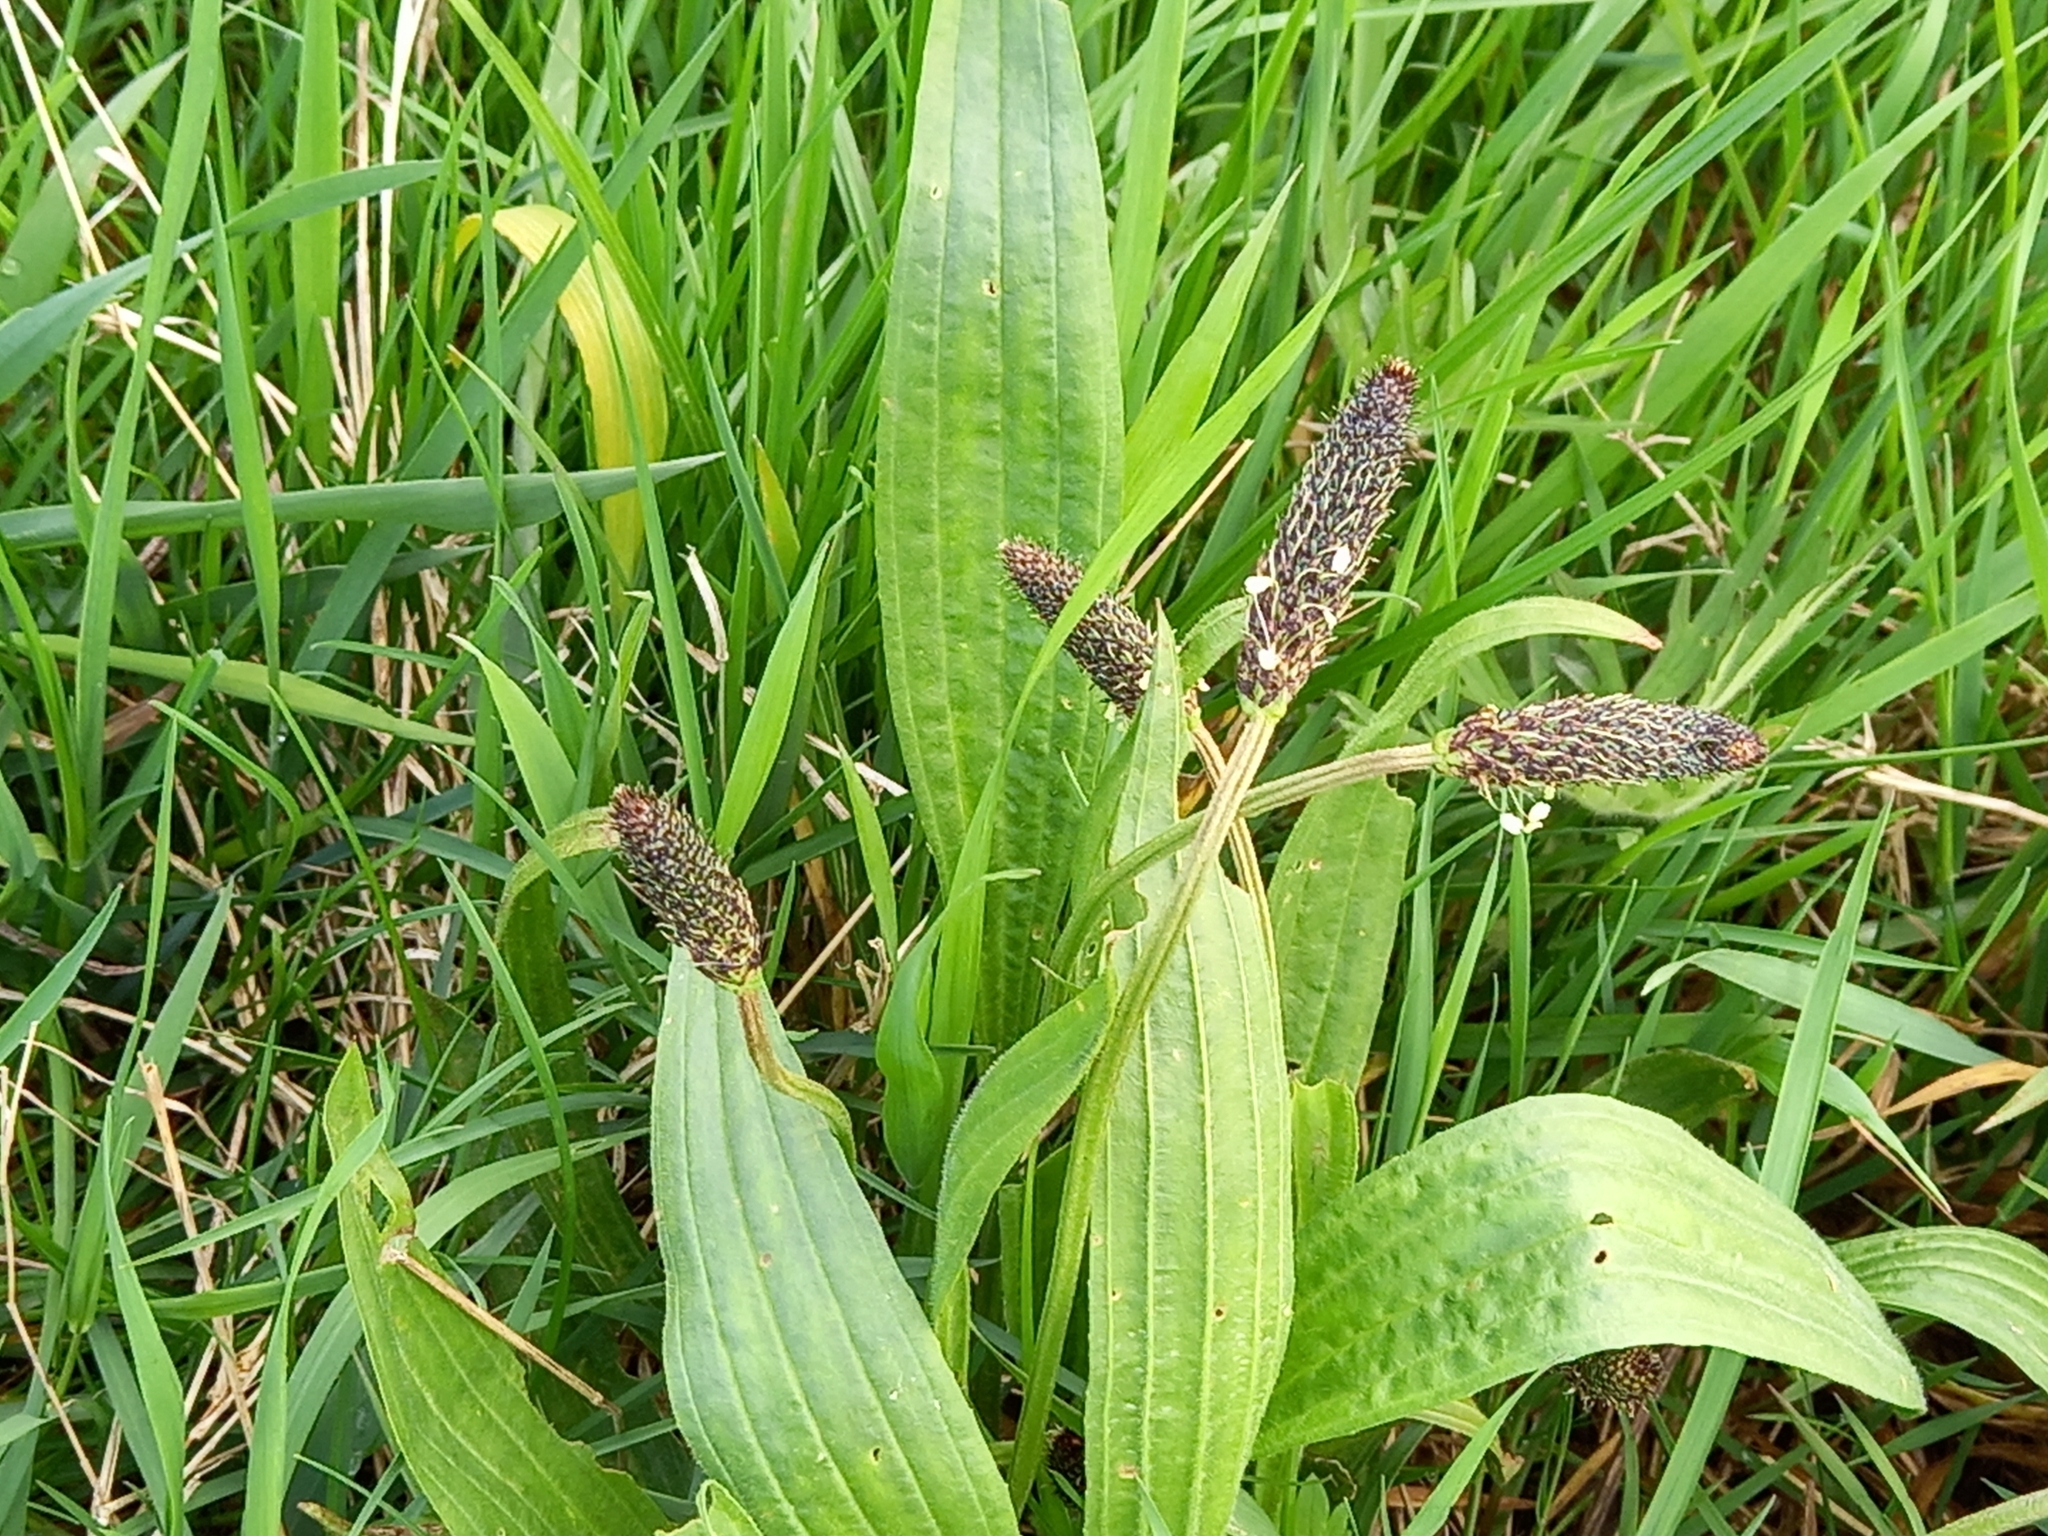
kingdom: Plantae
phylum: Tracheophyta
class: Magnoliopsida
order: Lamiales
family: Plantaginaceae
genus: Plantago
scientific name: Plantago lanceolata
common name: Ribwort plantain
